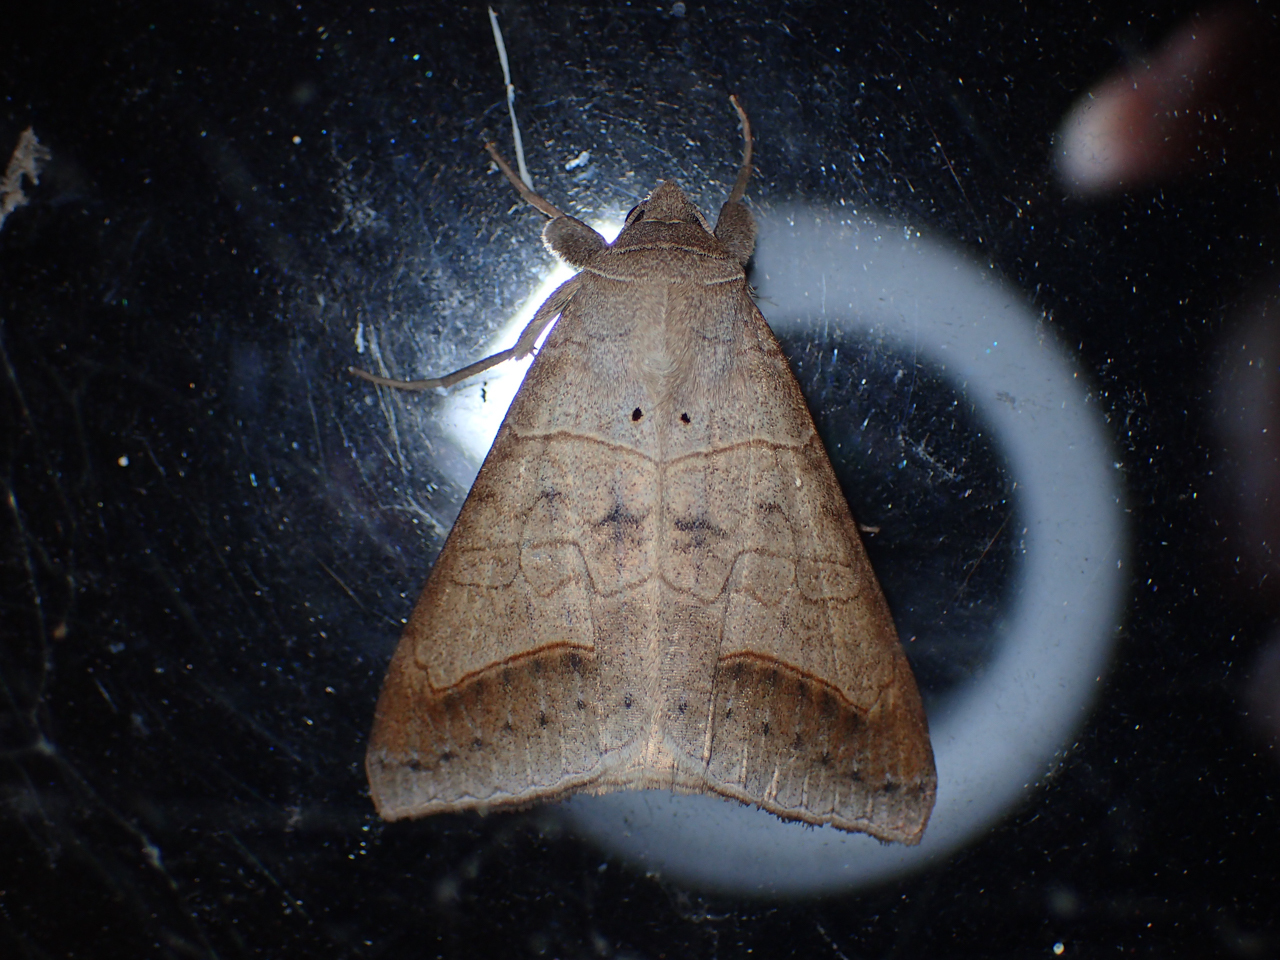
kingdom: Animalia
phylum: Arthropoda
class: Insecta
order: Lepidoptera
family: Erebidae
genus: Mocis
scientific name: Mocis marcida
